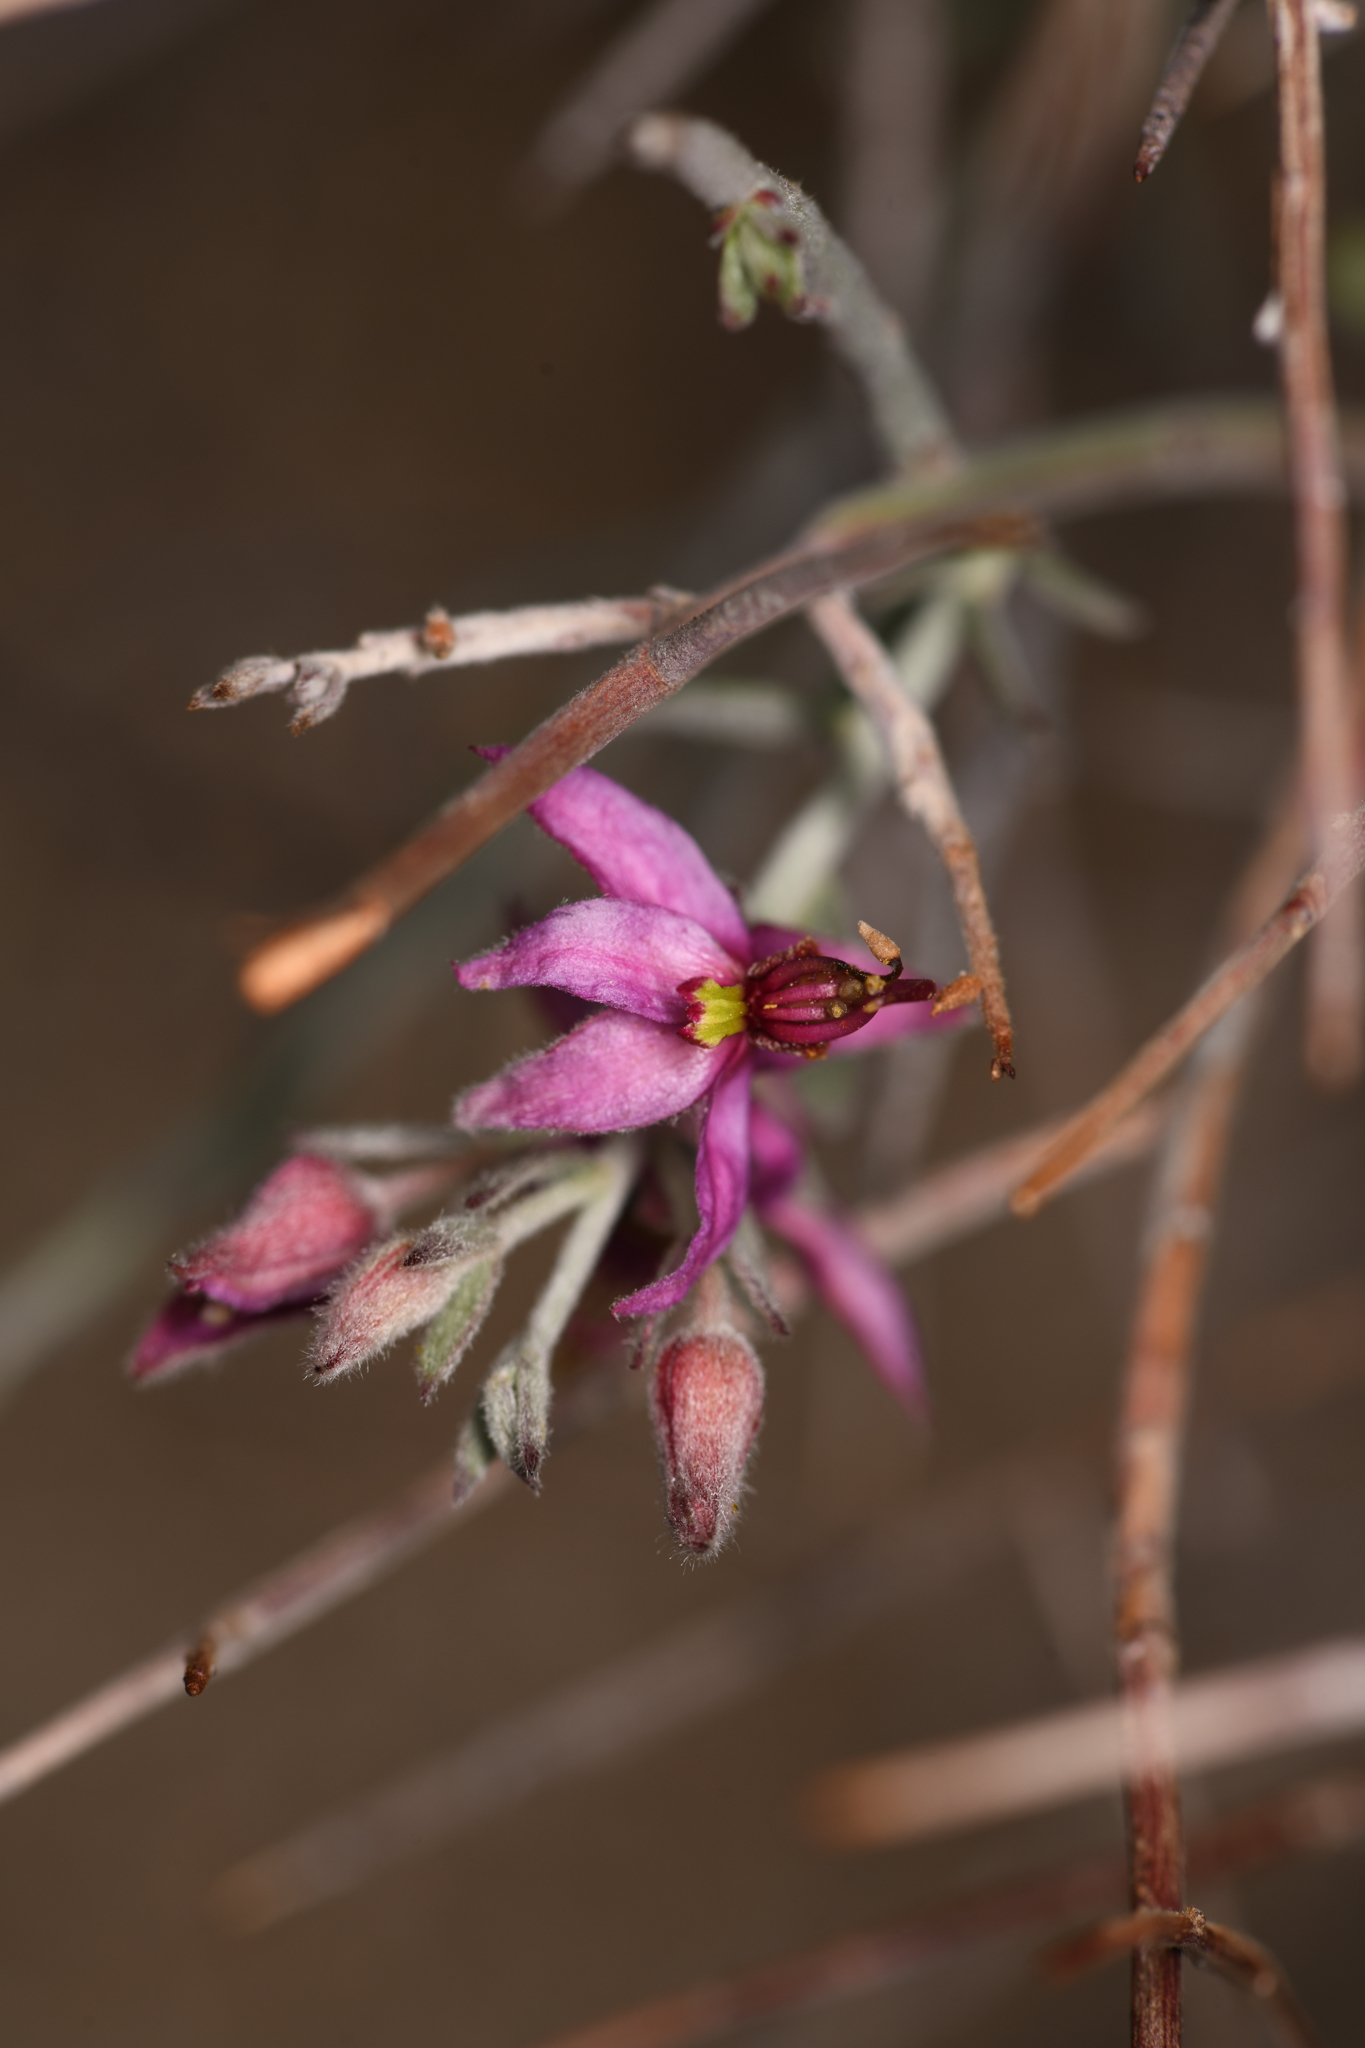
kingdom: Plantae
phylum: Tracheophyta
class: Magnoliopsida
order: Zygophyllales
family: Krameriaceae
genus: Krameria
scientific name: Krameria bicolor
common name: White ratany
